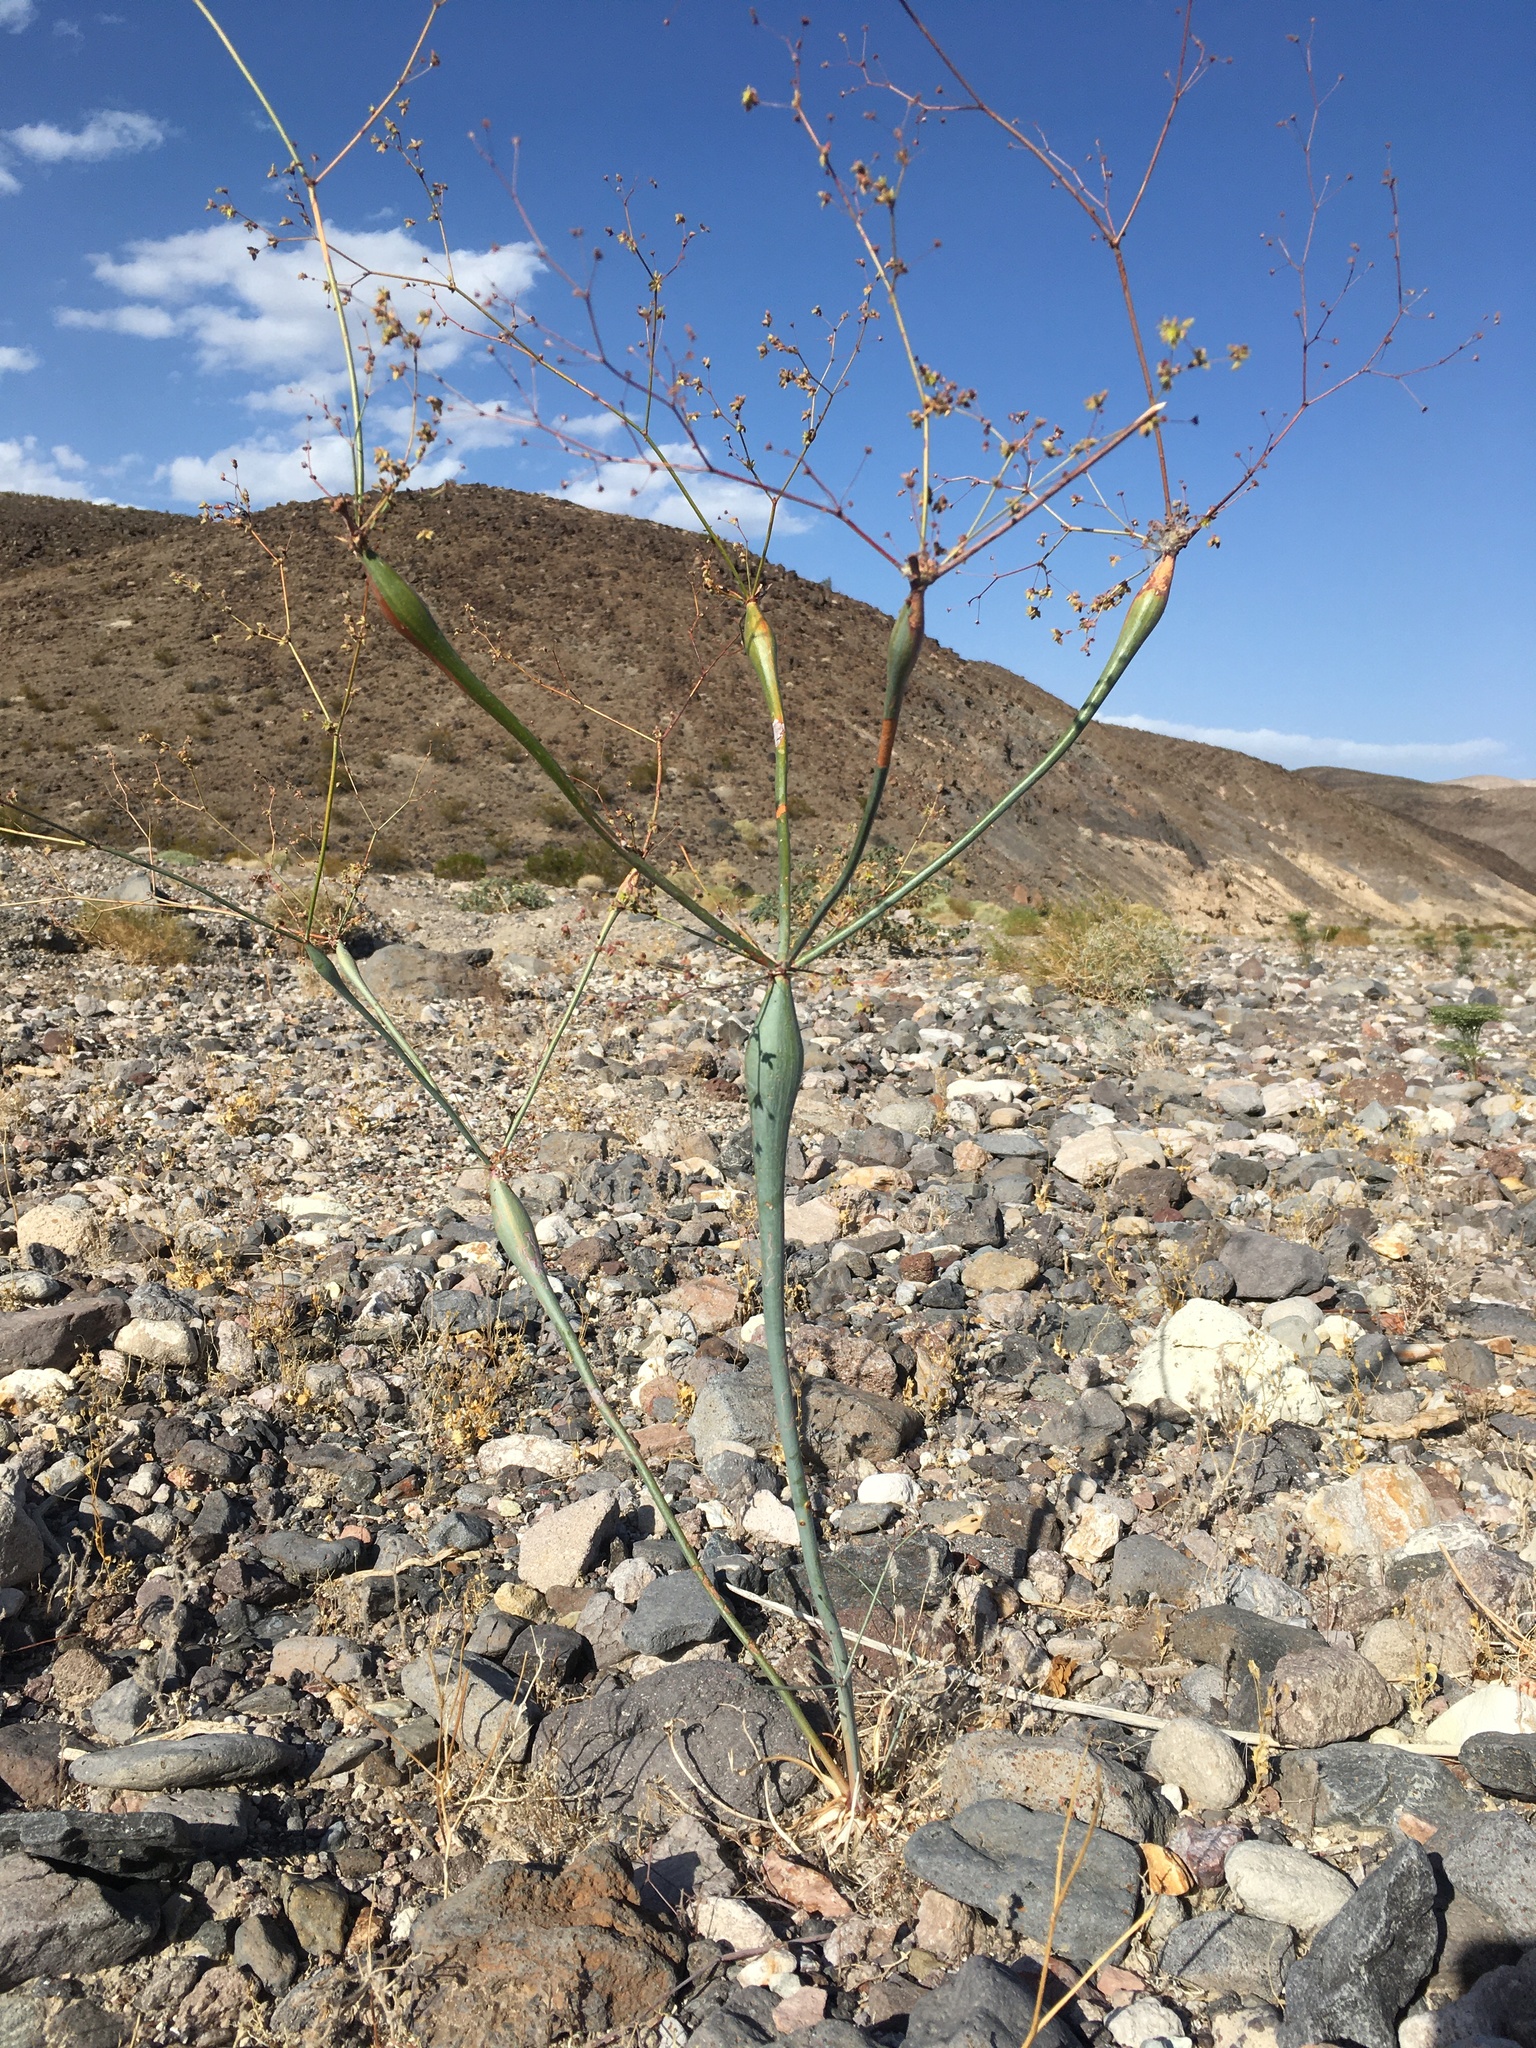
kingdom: Plantae
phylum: Tracheophyta
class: Magnoliopsida
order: Caryophyllales
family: Polygonaceae
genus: Eriogonum
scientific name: Eriogonum inflatum
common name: Desert trumpet
